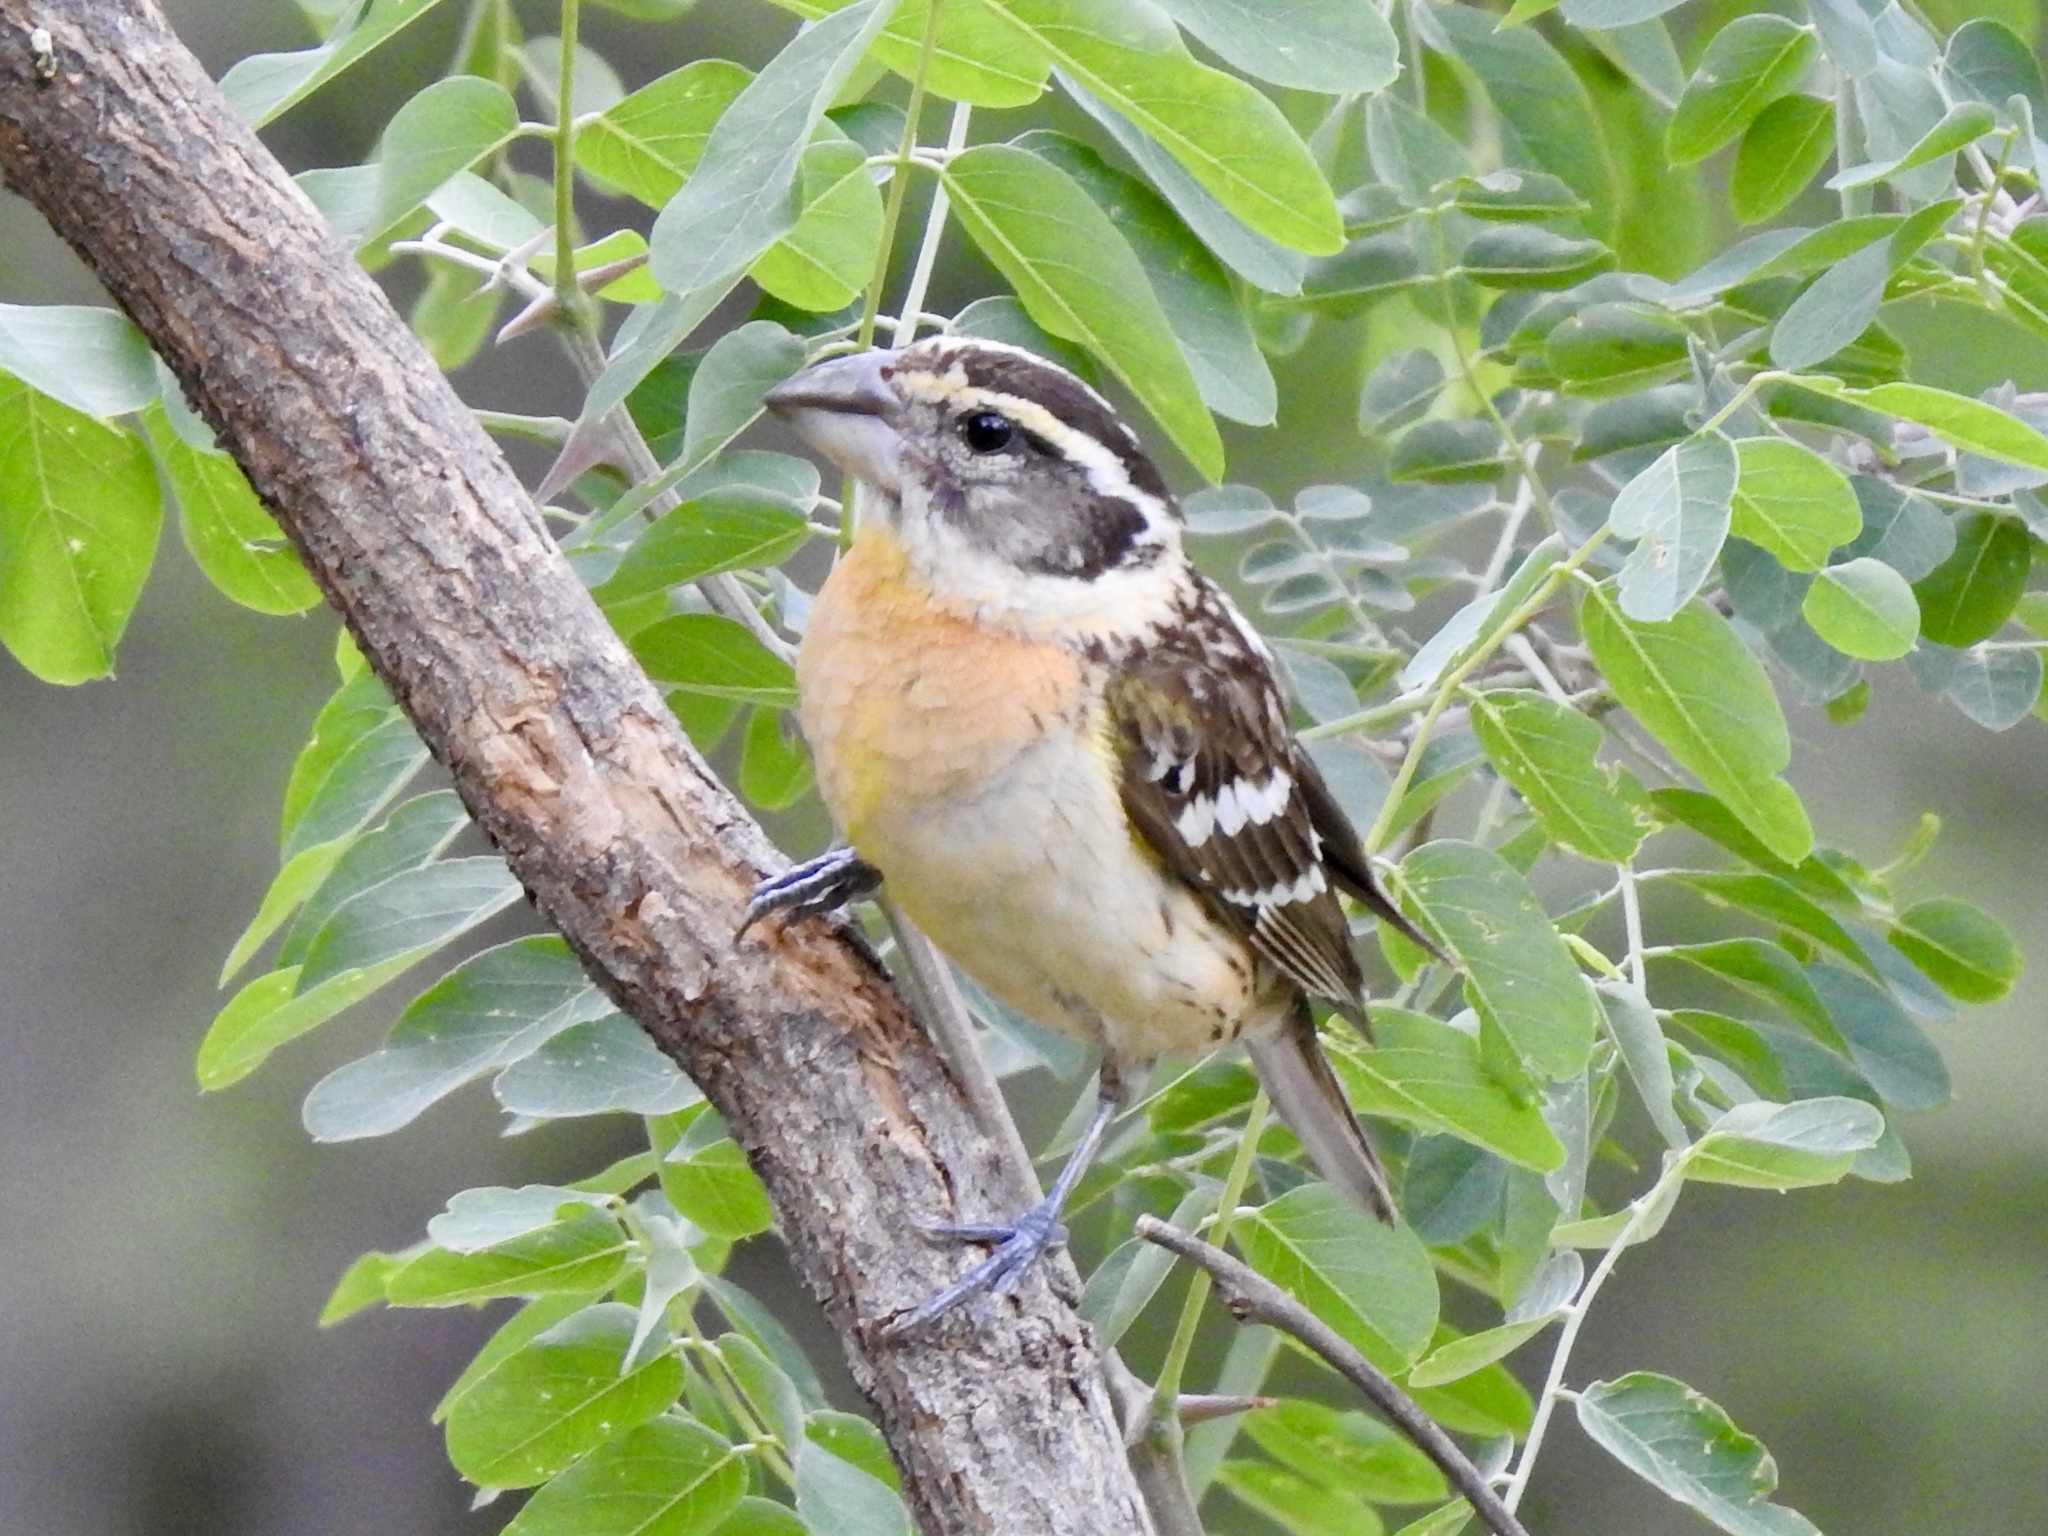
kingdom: Animalia
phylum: Chordata
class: Aves
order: Passeriformes
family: Cardinalidae
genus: Pheucticus
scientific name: Pheucticus melanocephalus
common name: Black-headed grosbeak
